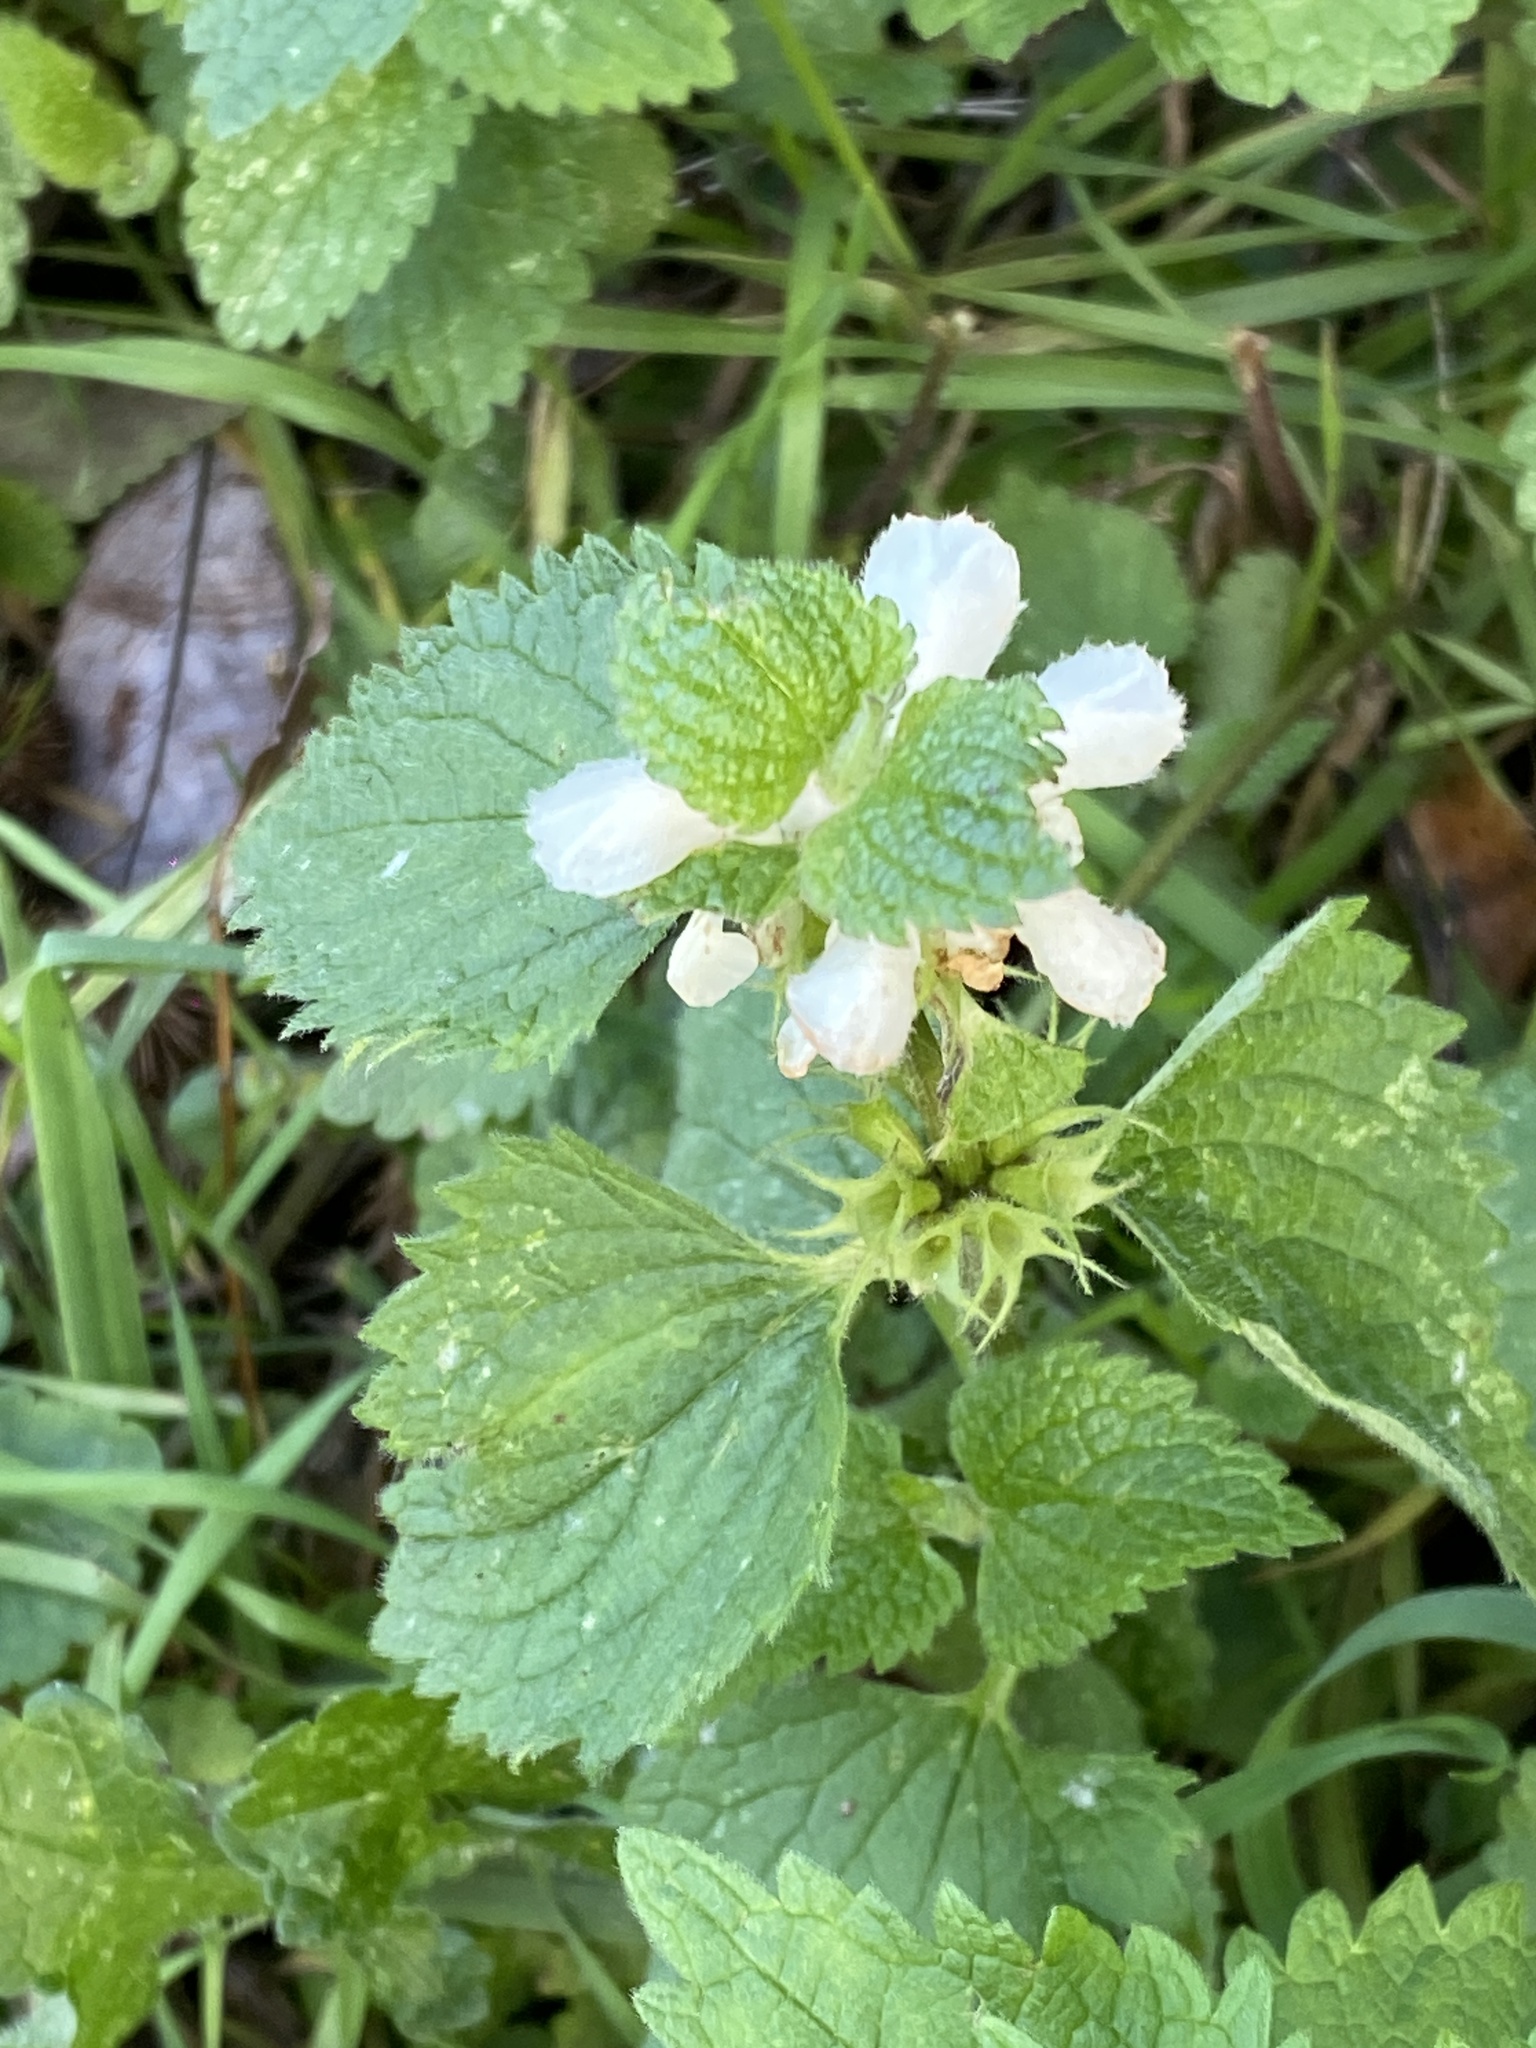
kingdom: Plantae
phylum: Tracheophyta
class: Magnoliopsida
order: Lamiales
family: Lamiaceae
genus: Lamium
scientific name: Lamium album
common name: White dead-nettle
